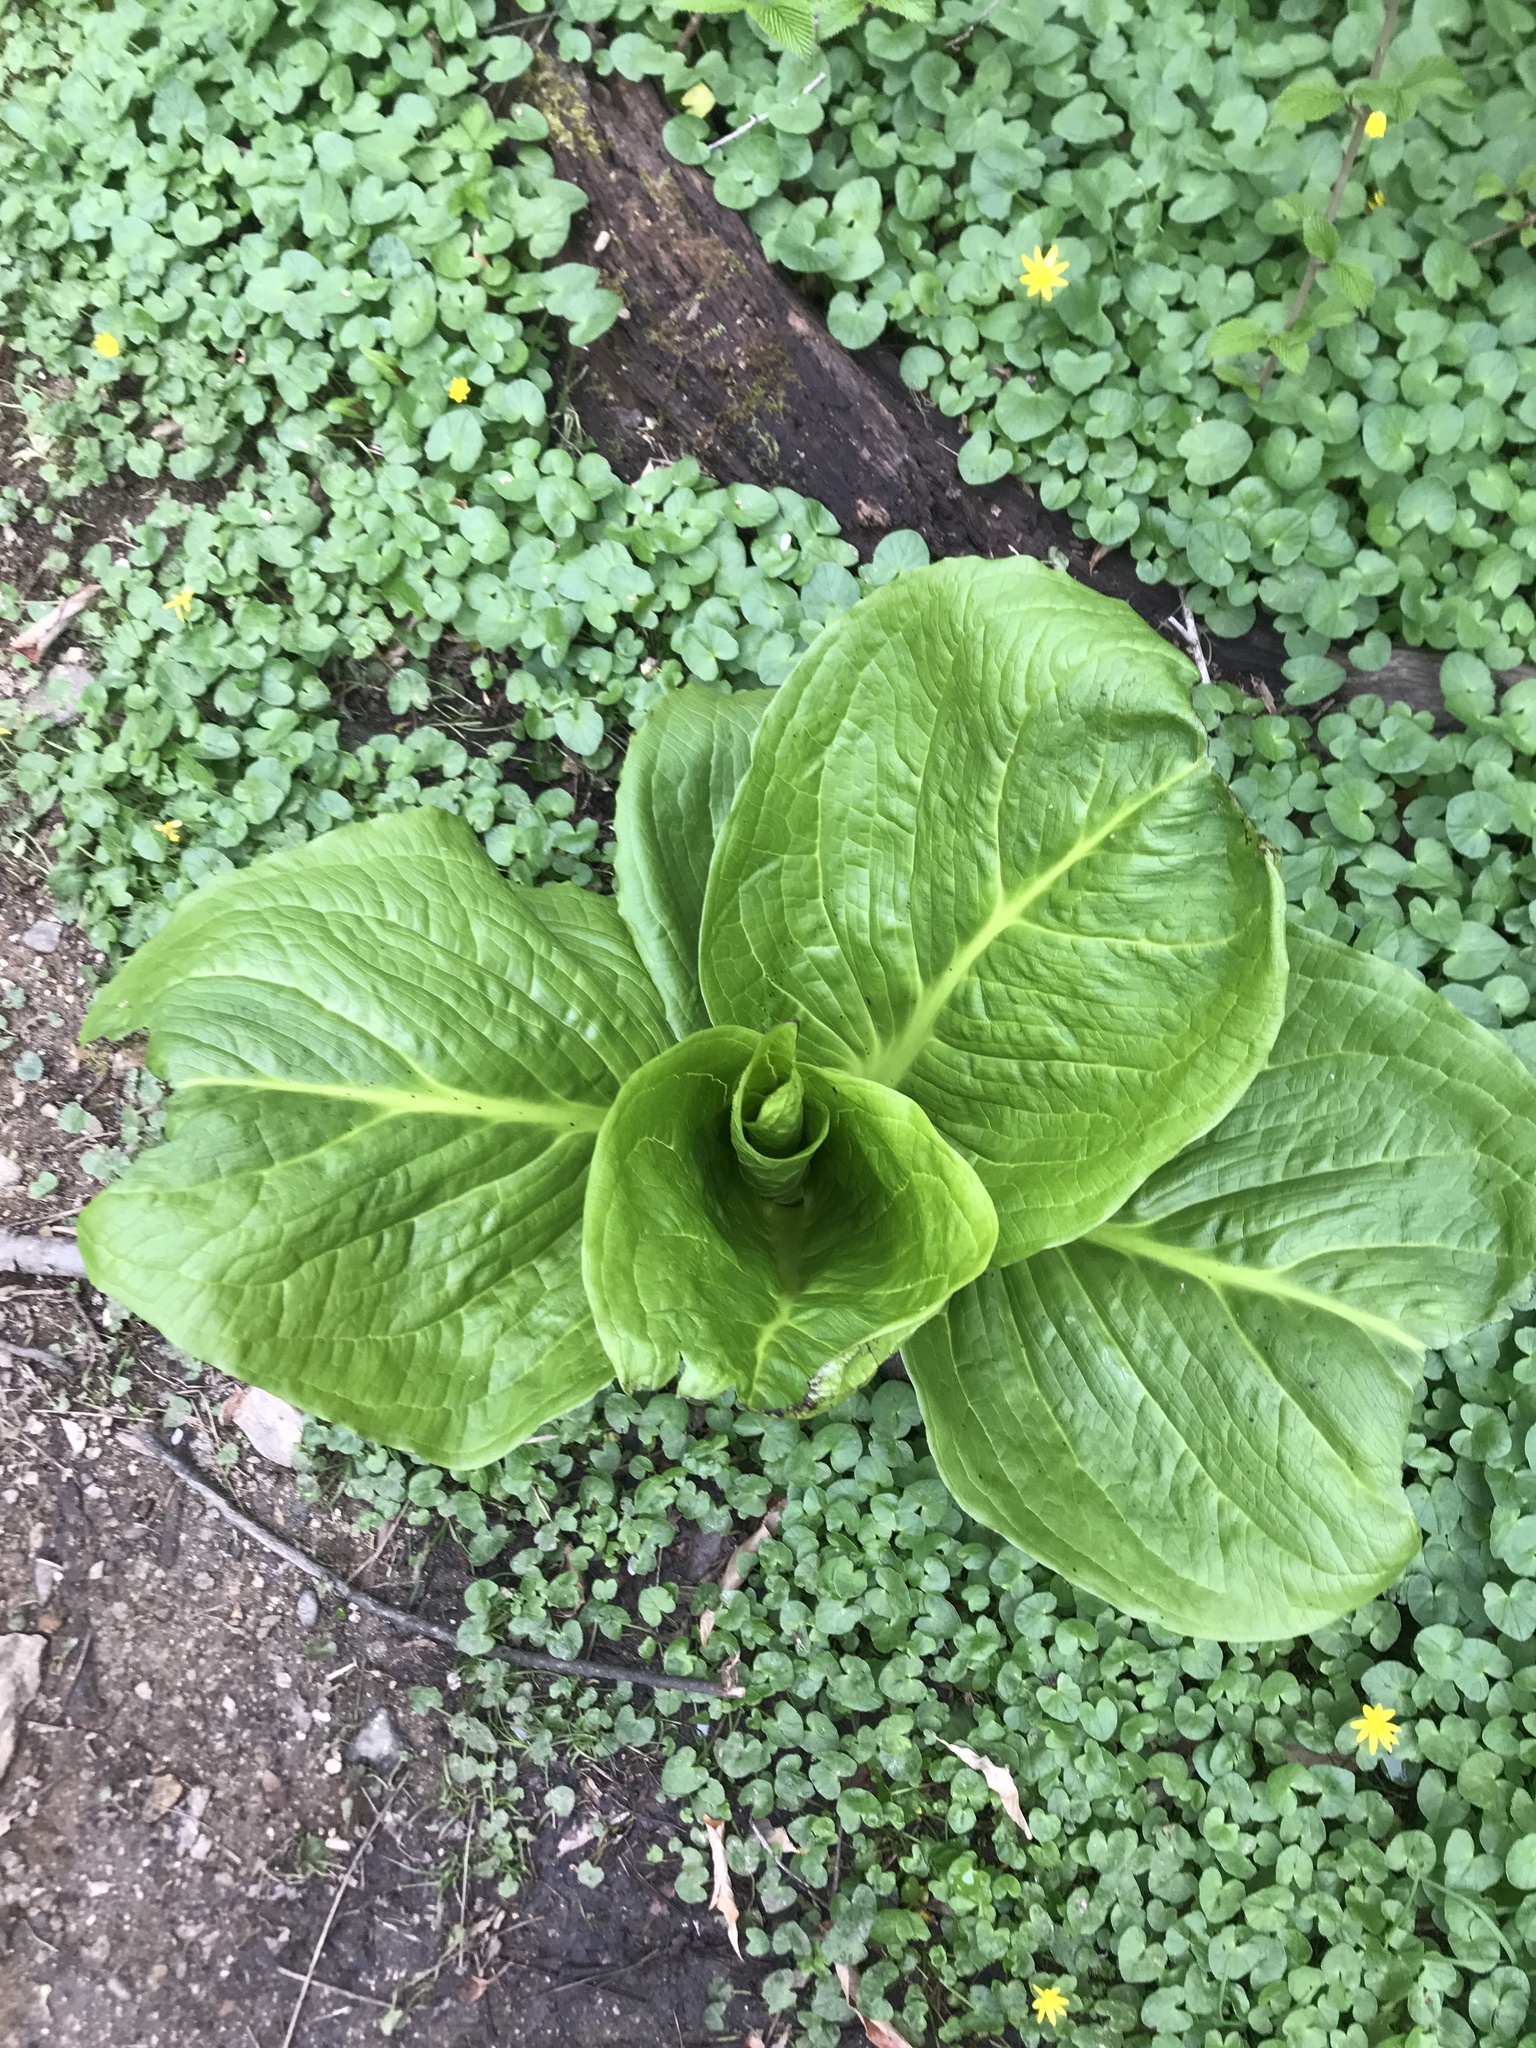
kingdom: Plantae
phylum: Tracheophyta
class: Liliopsida
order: Alismatales
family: Araceae
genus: Symplocarpus
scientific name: Symplocarpus foetidus
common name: Eastern skunk cabbage
